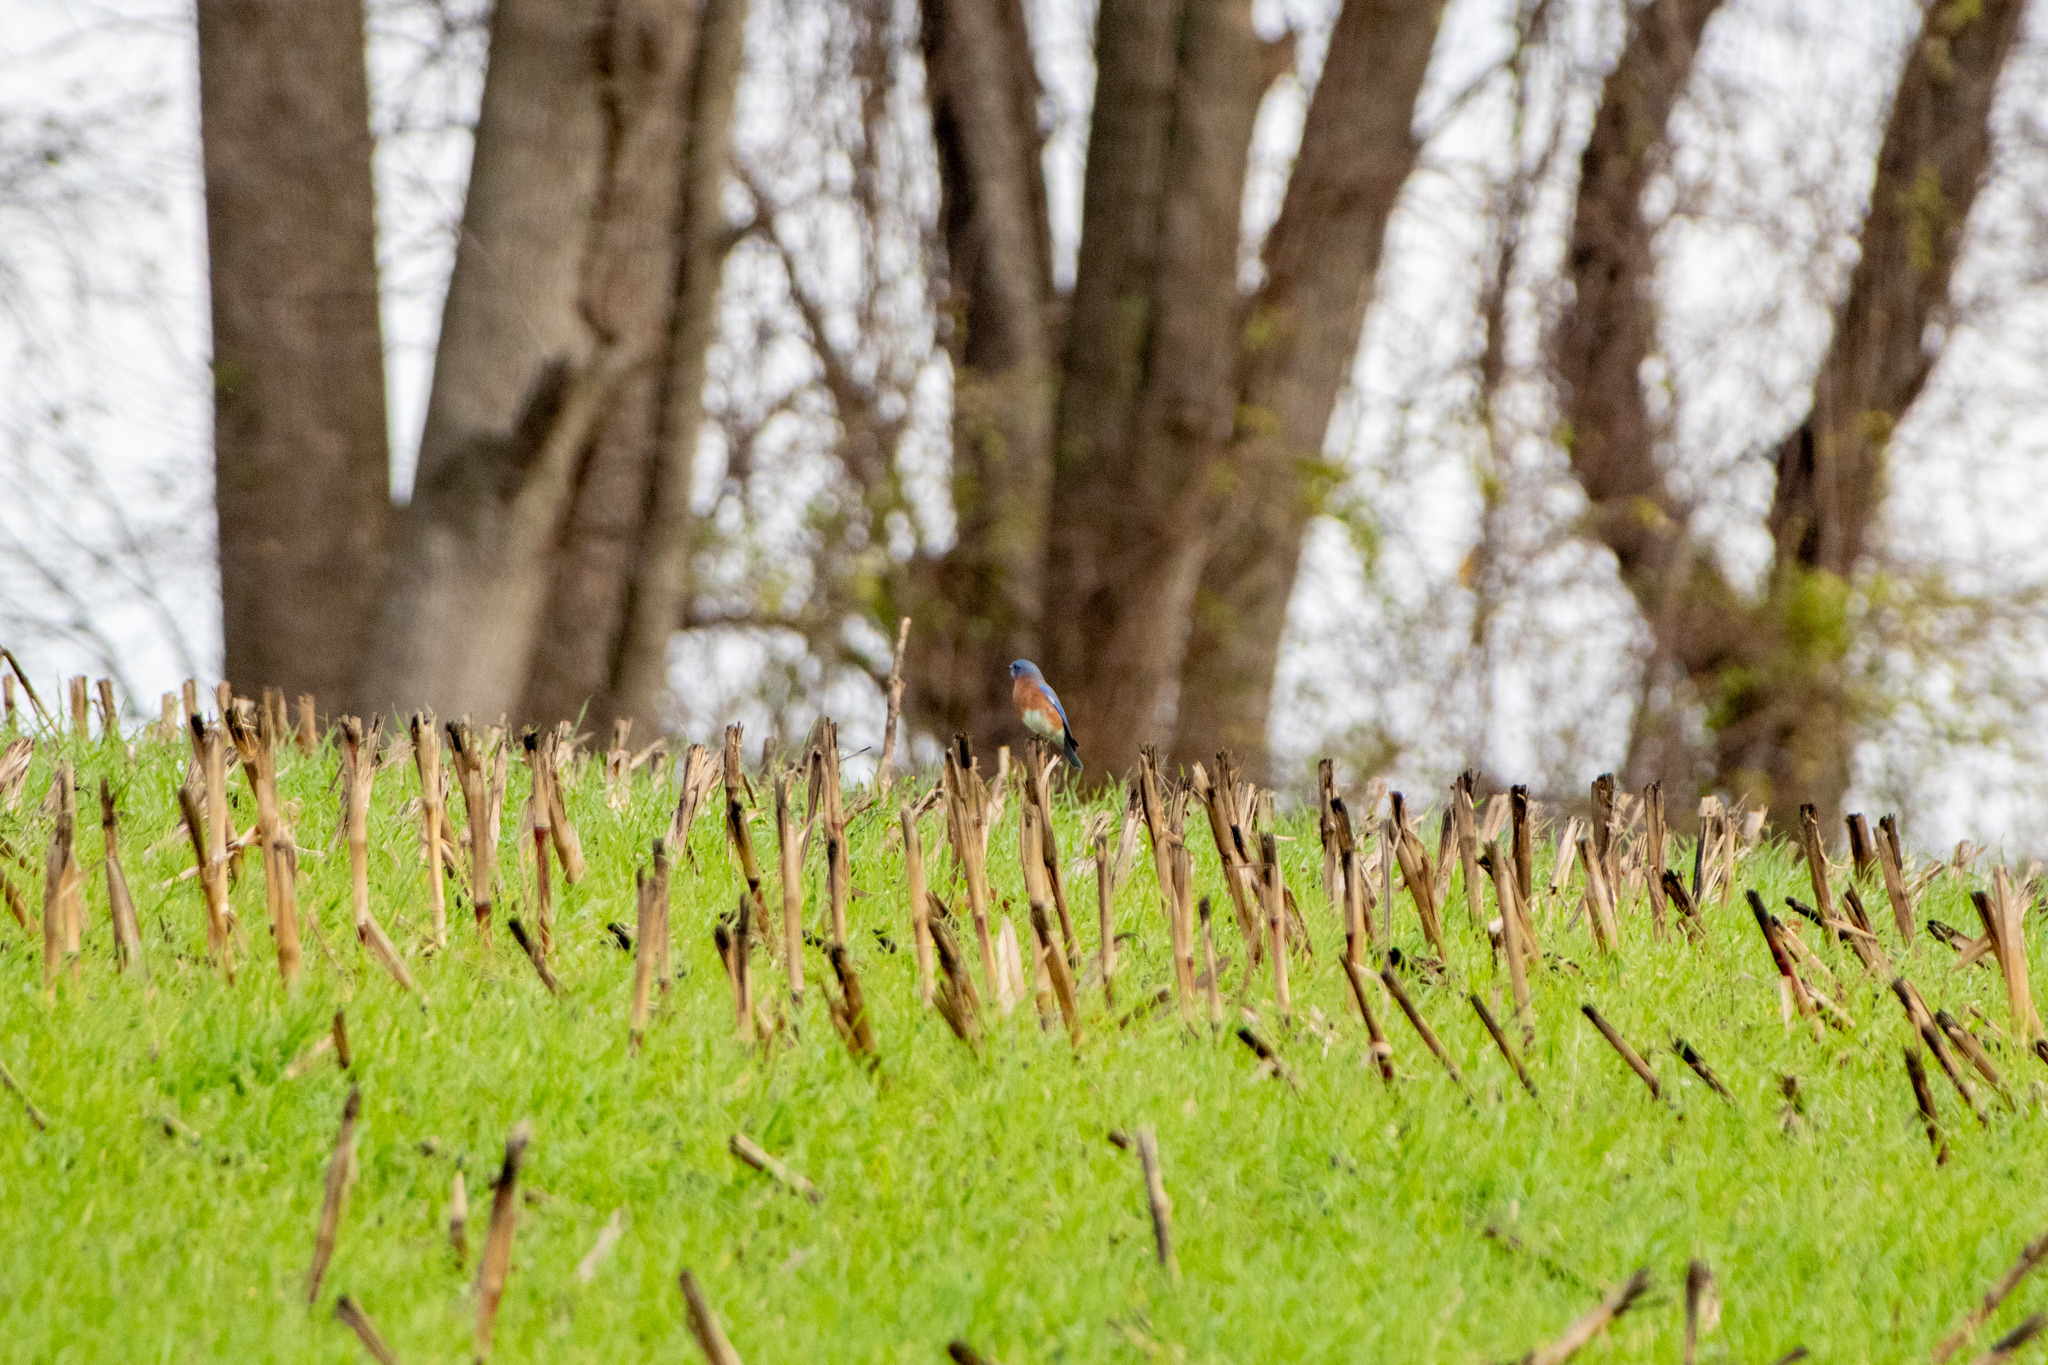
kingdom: Animalia
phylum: Chordata
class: Aves
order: Passeriformes
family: Turdidae
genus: Sialia
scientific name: Sialia sialis
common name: Eastern bluebird
